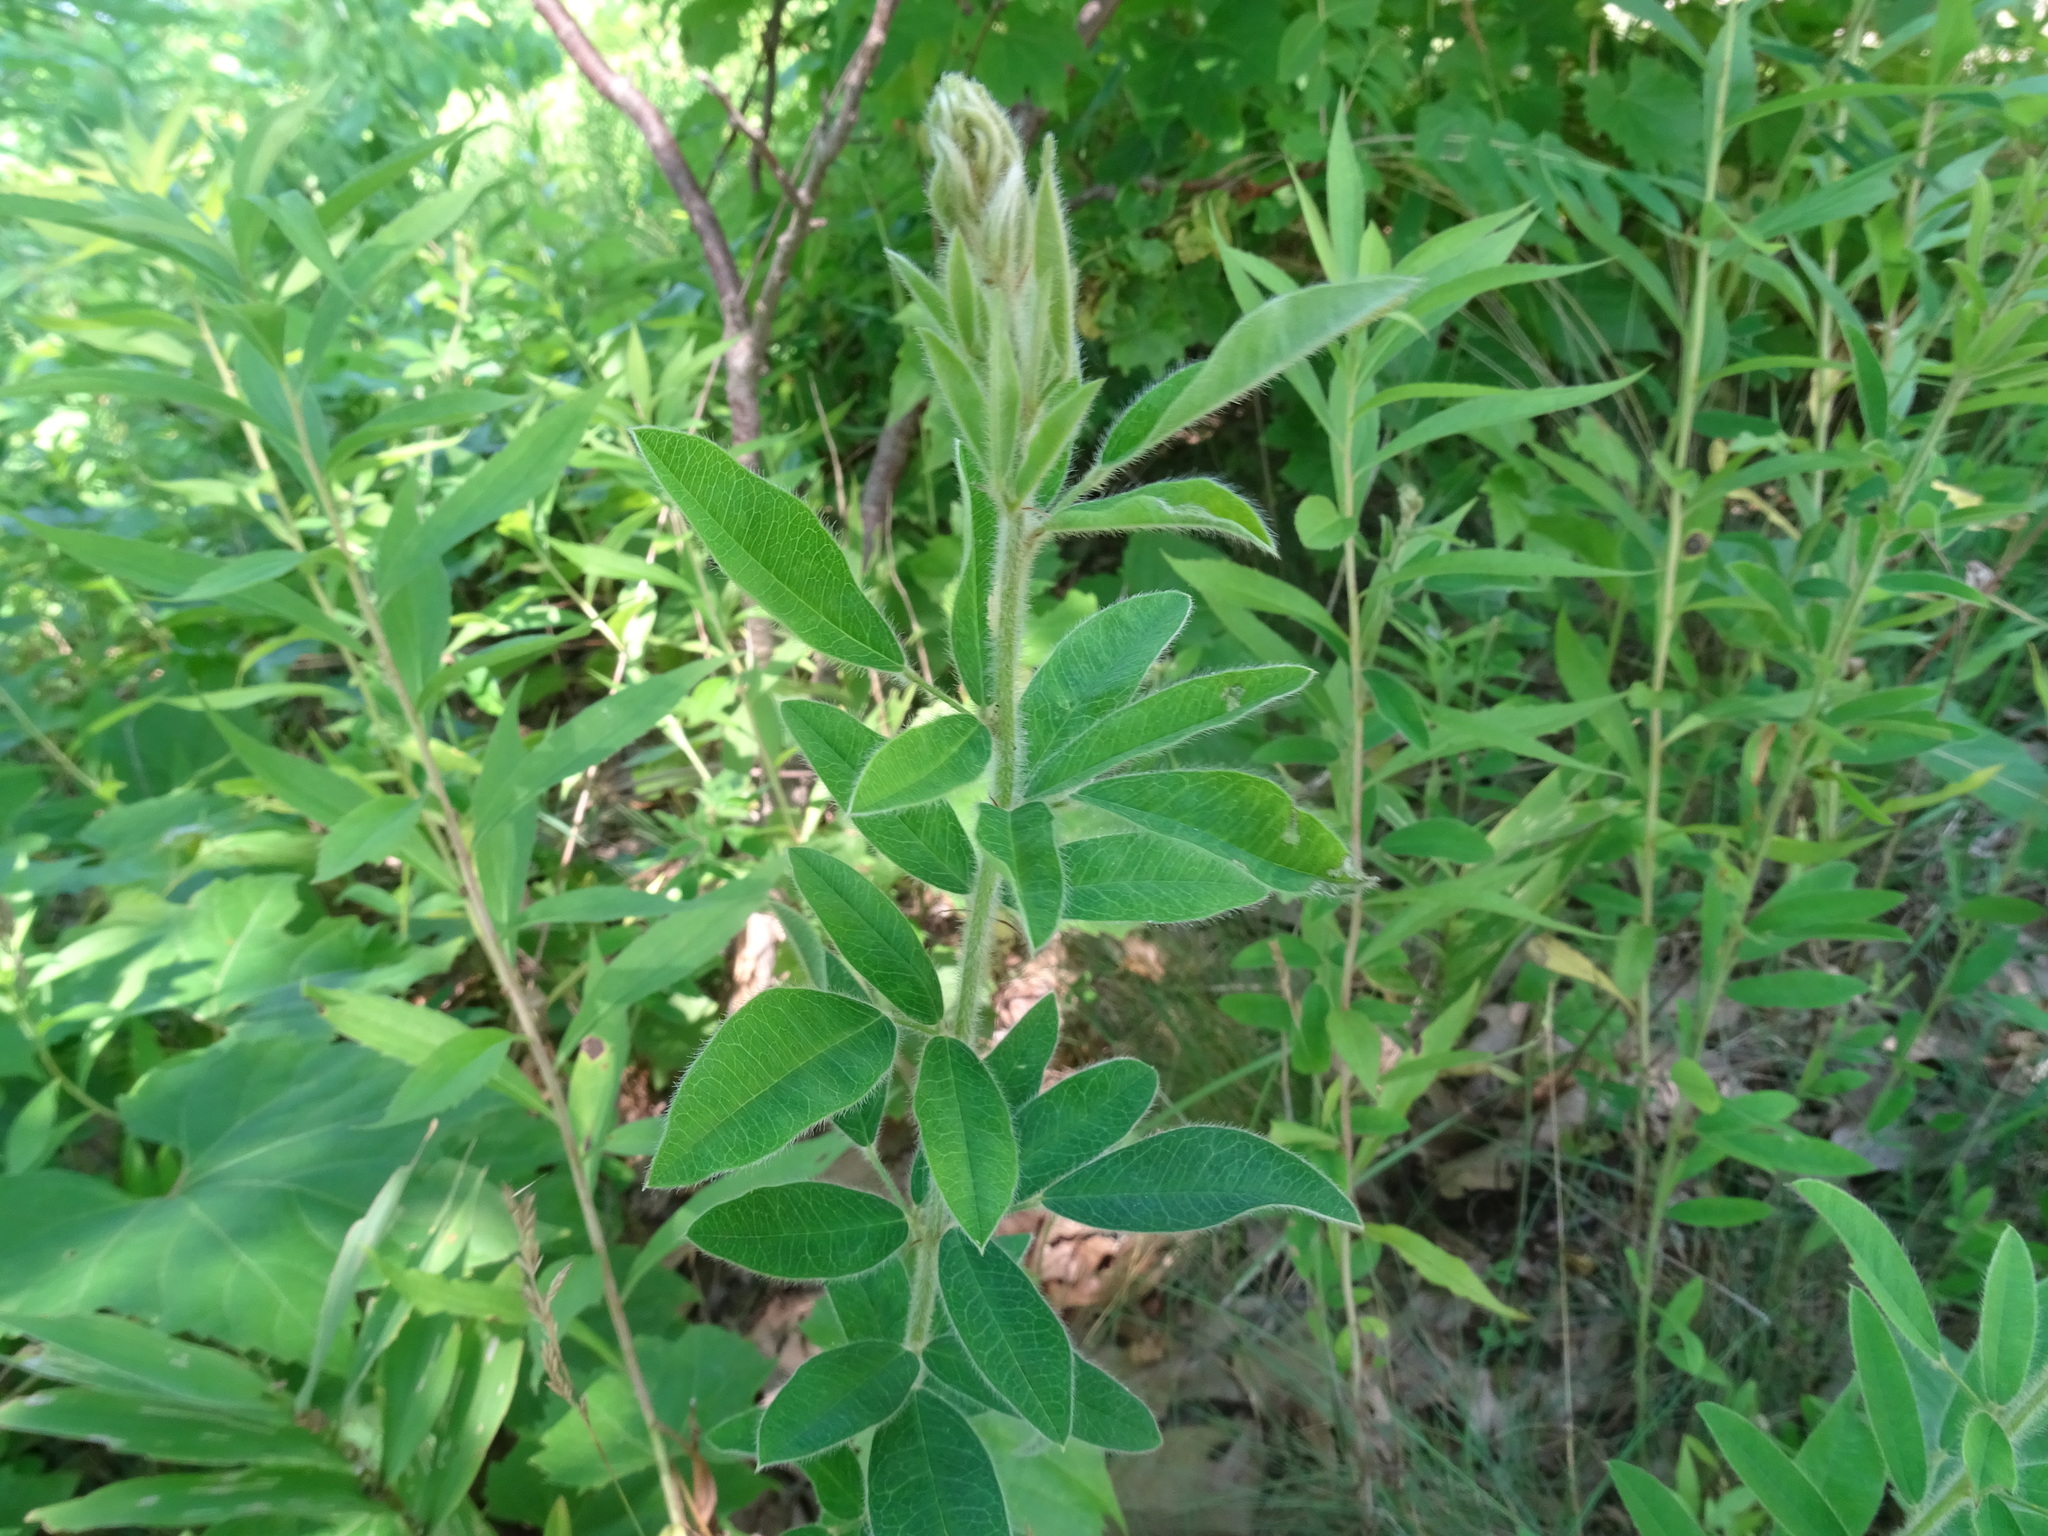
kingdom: Plantae
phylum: Tracheophyta
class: Magnoliopsida
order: Fabales
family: Fabaceae
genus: Lespedeza
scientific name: Lespedeza capitata
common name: Dusty clover
